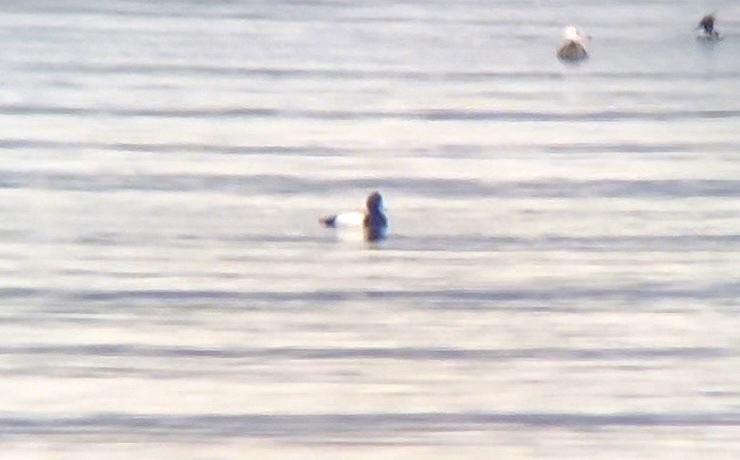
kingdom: Animalia
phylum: Chordata
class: Aves
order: Anseriformes
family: Anatidae
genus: Aythya
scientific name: Aythya marila
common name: Greater scaup
